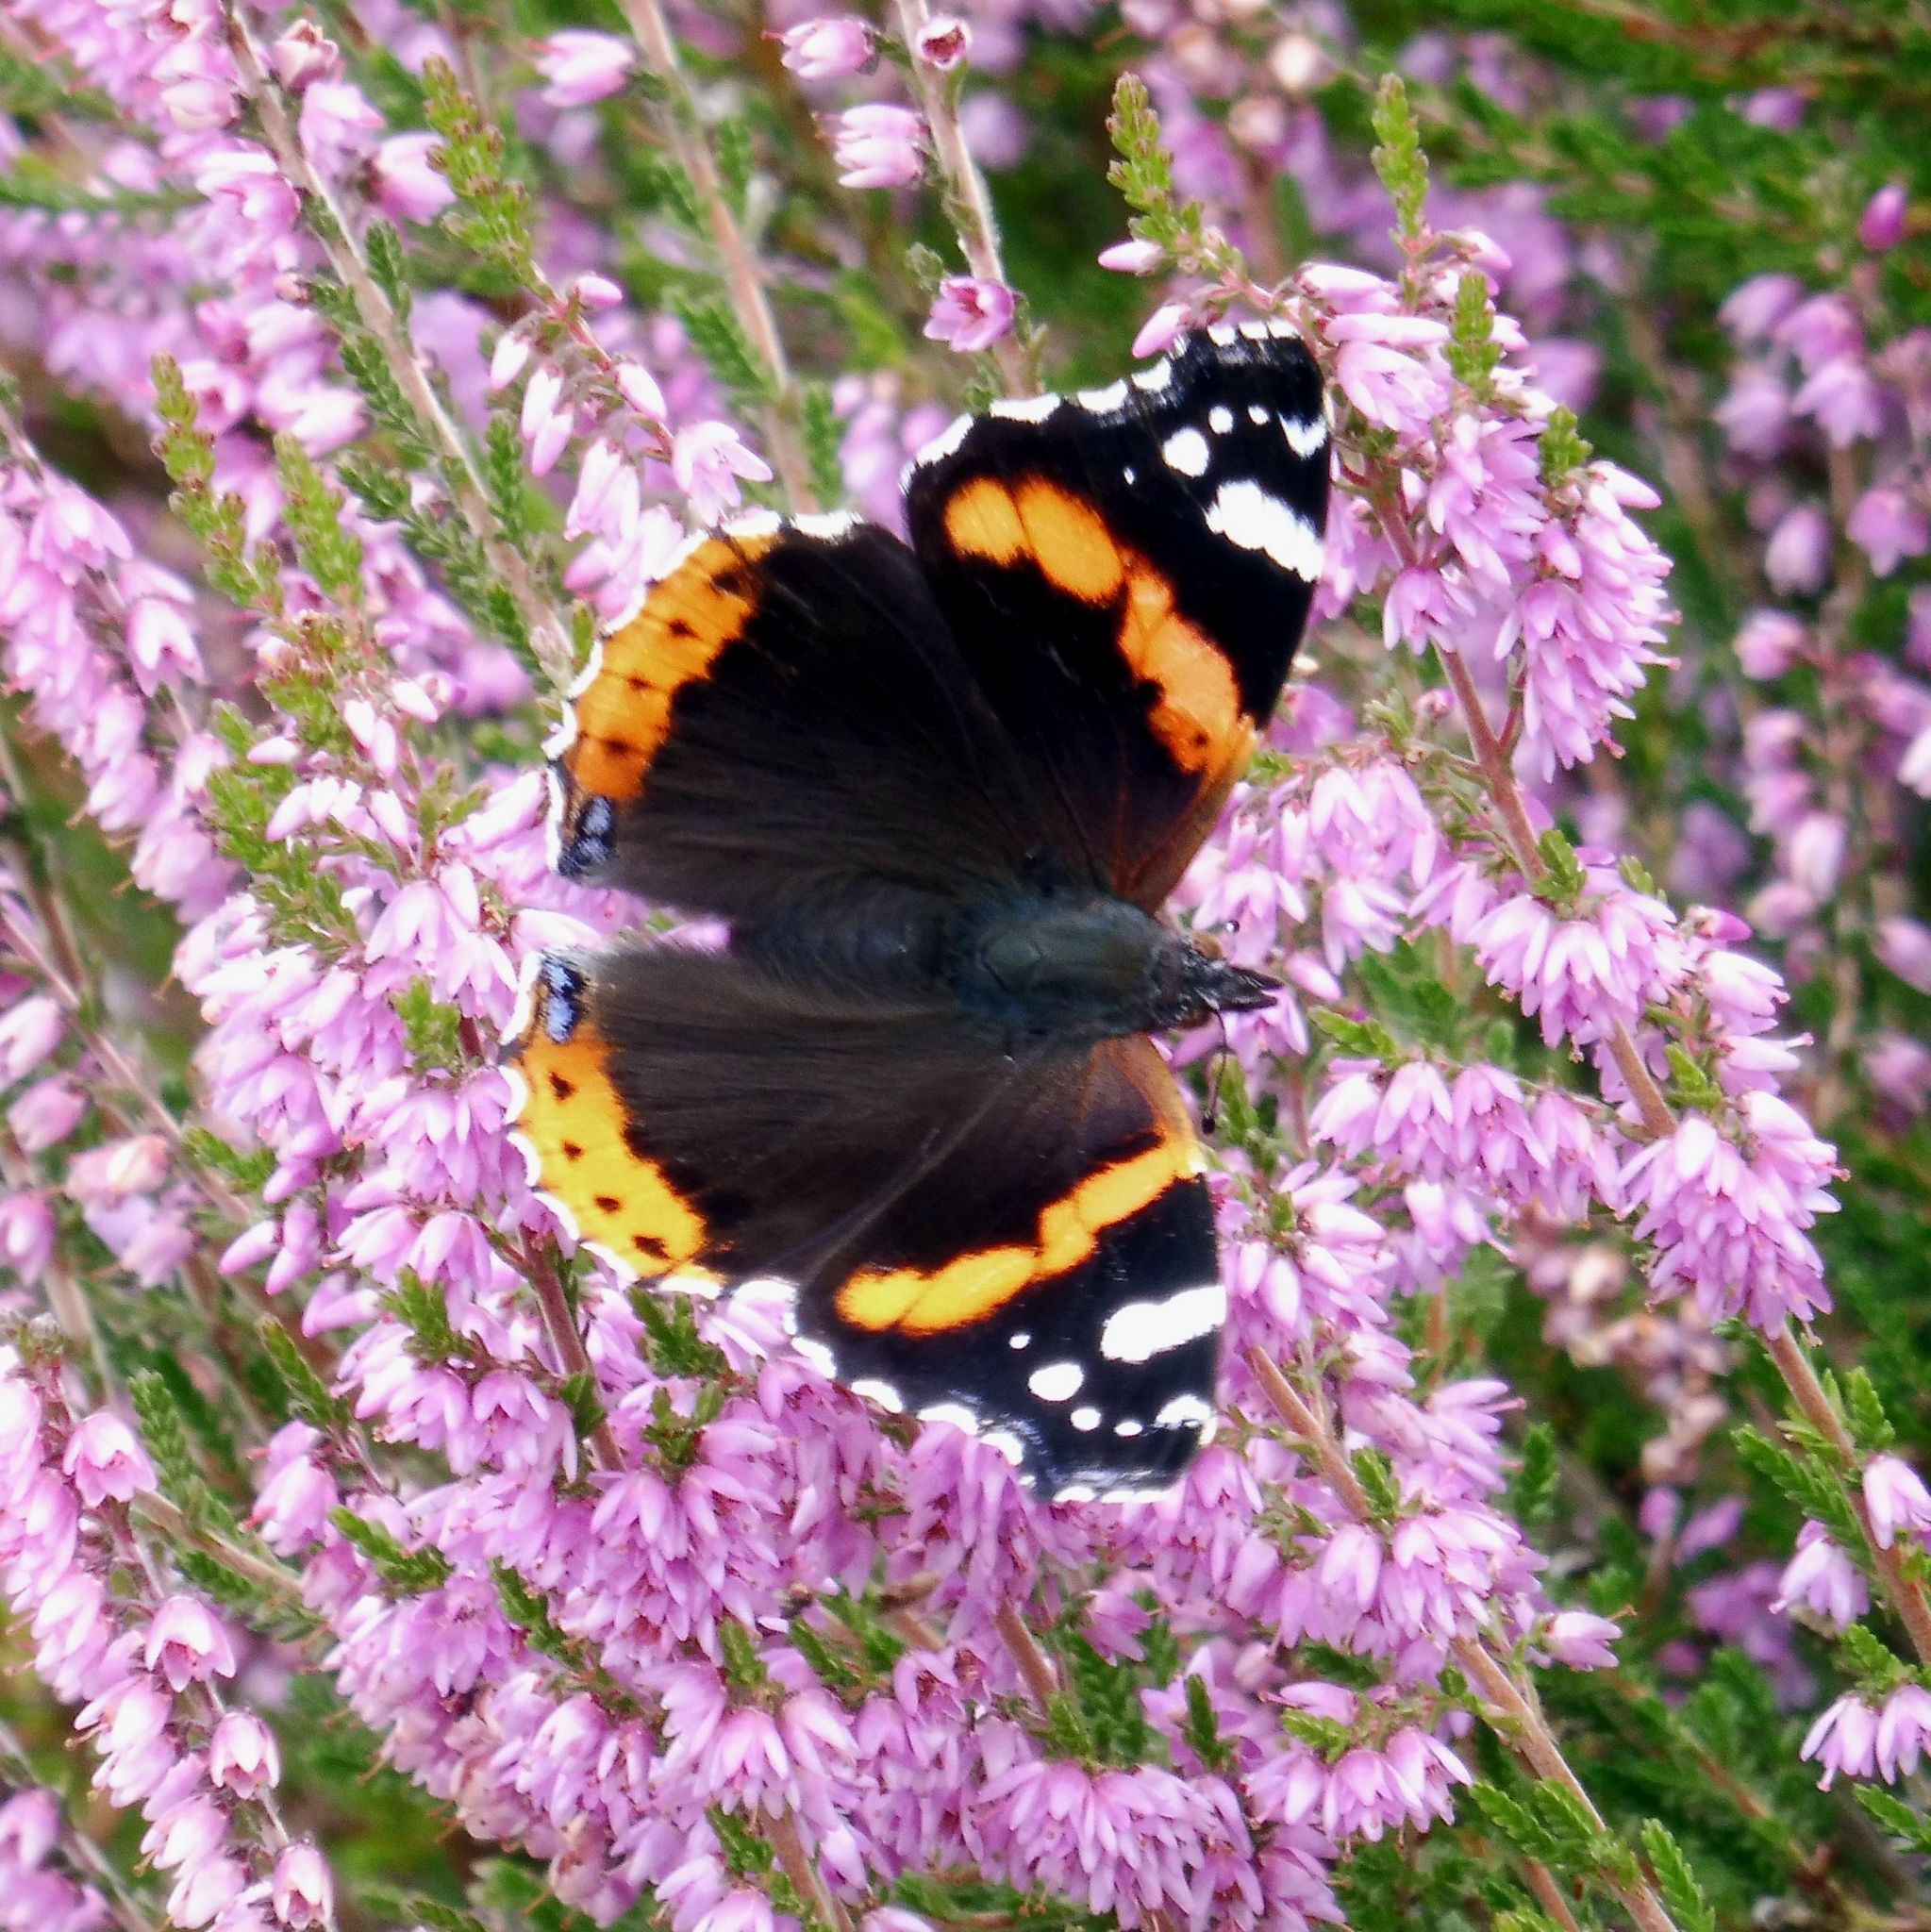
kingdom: Animalia
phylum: Arthropoda
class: Insecta
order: Lepidoptera
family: Nymphalidae
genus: Vanessa
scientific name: Vanessa atalanta
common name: Red admiral
